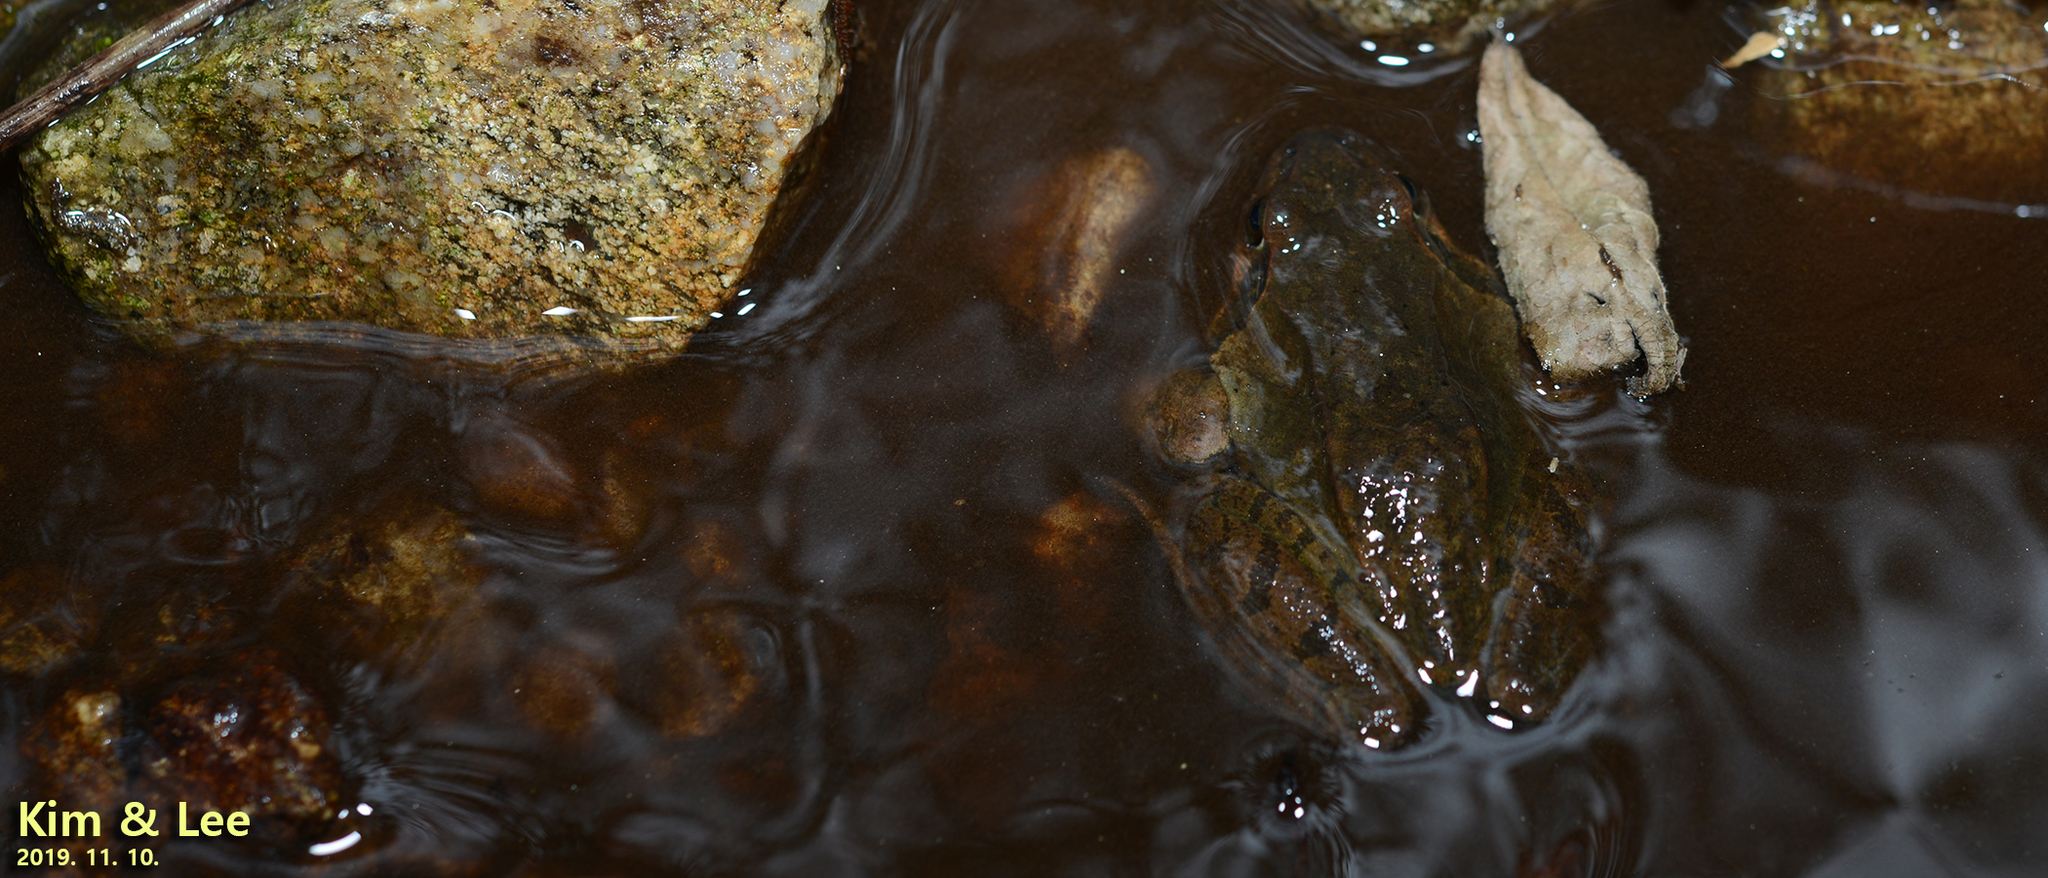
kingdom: Animalia
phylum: Chordata
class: Amphibia
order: Anura
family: Ranidae
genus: Rana
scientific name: Rana uenoi
